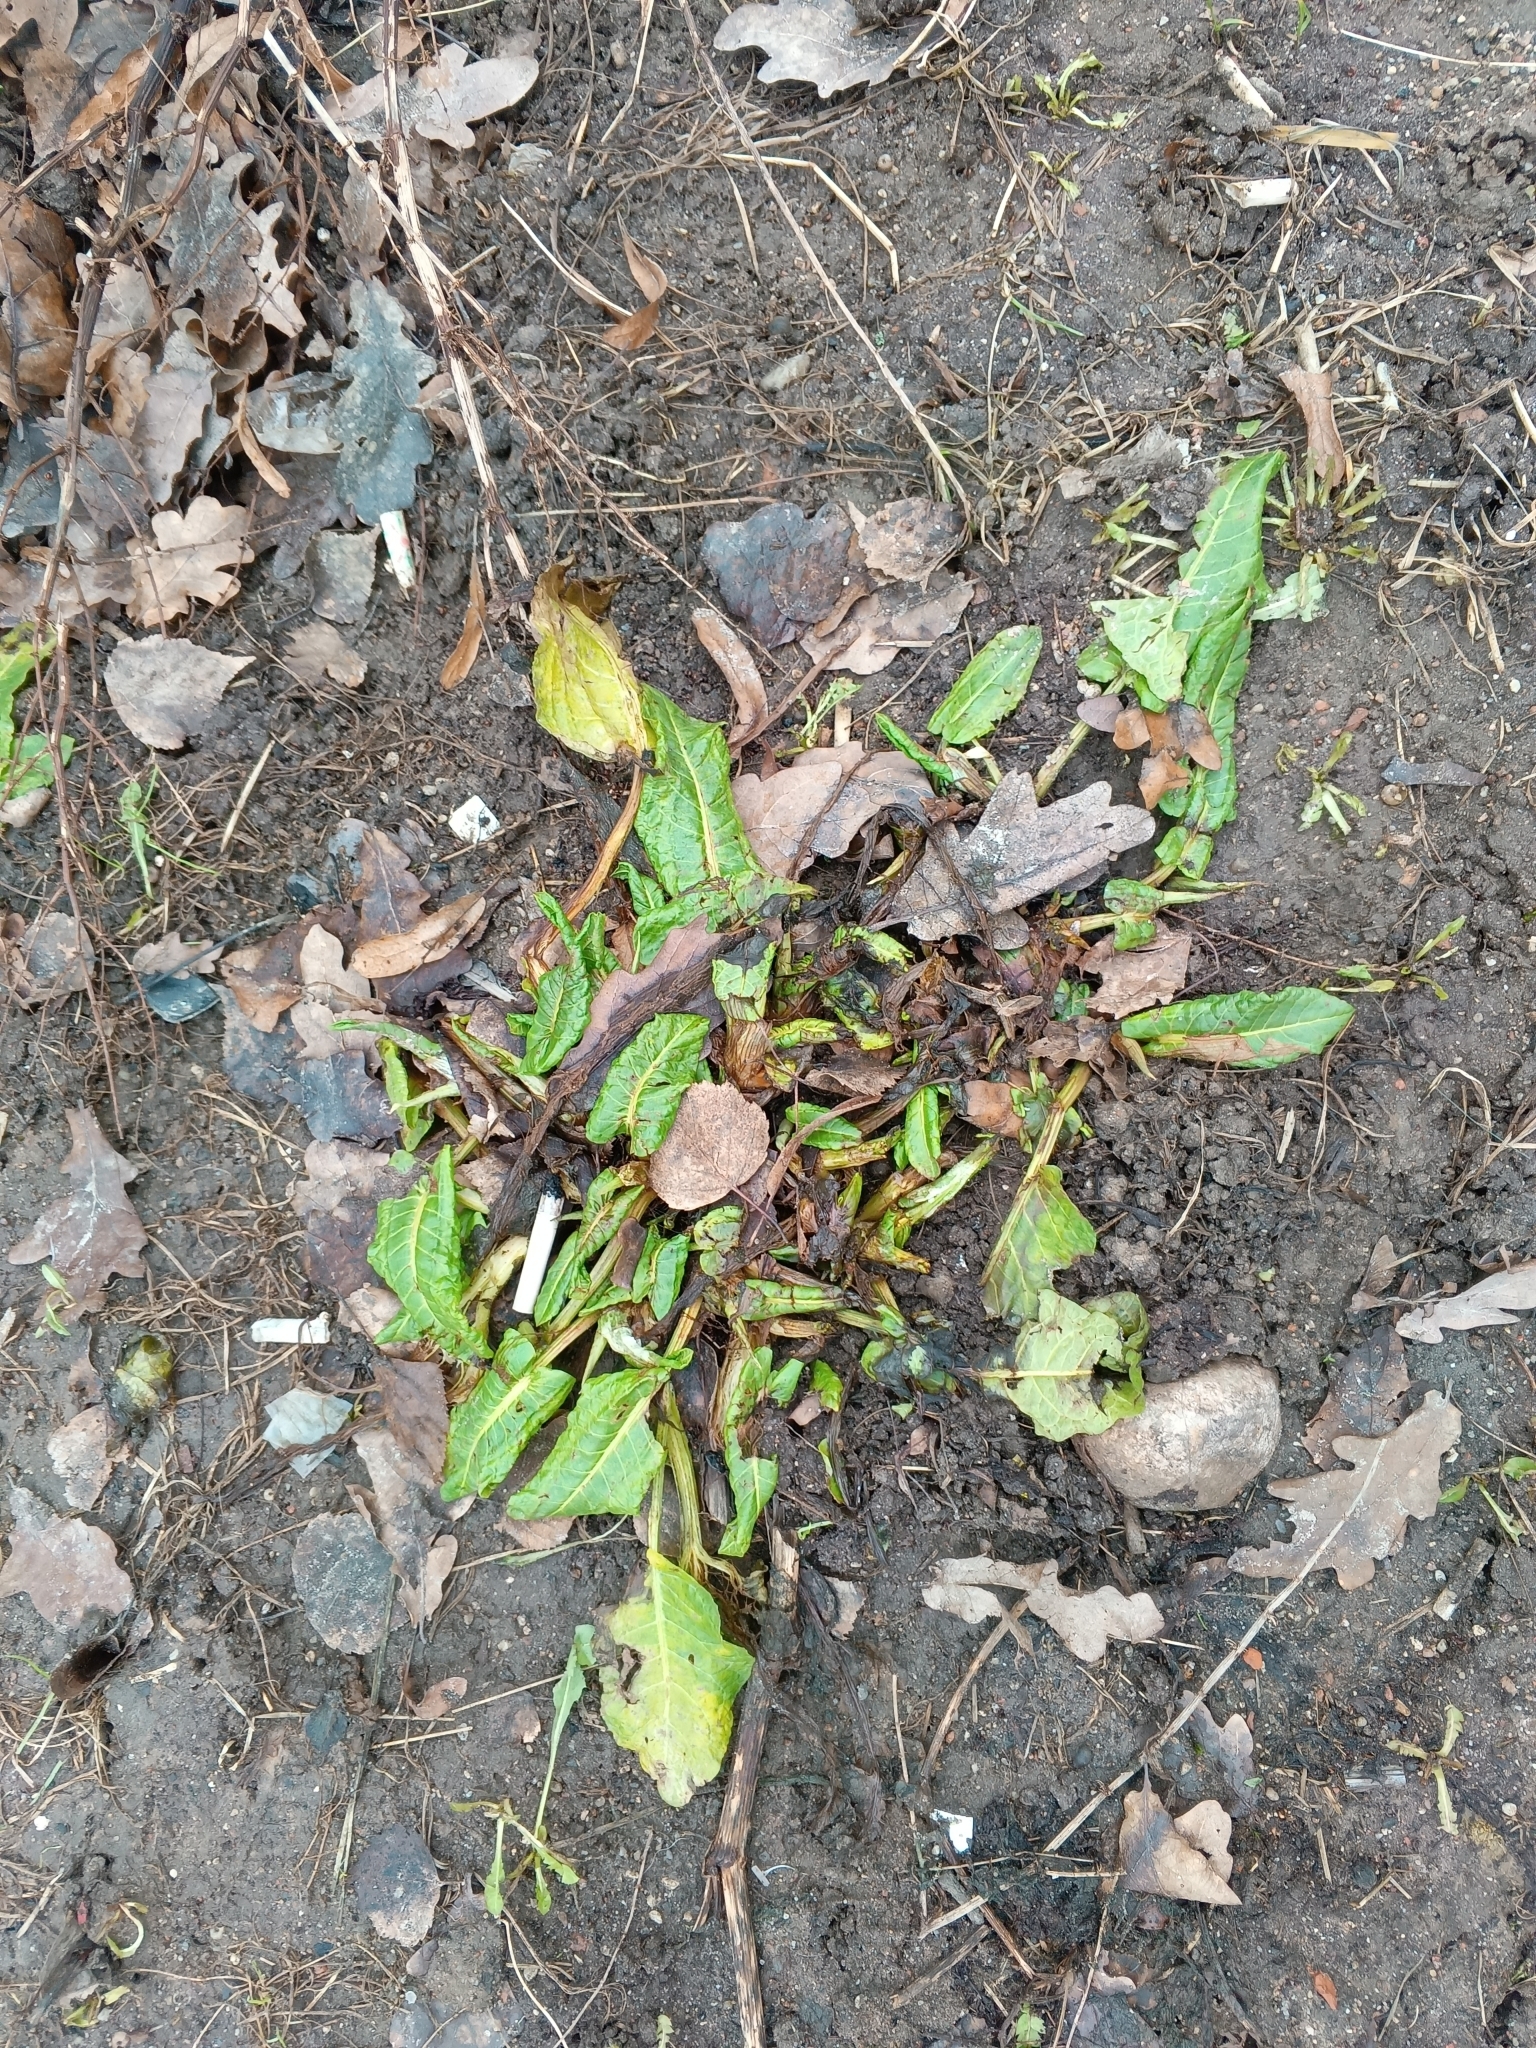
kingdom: Plantae
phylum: Tracheophyta
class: Magnoliopsida
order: Caryophyllales
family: Polygonaceae
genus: Rumex
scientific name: Rumex obtusifolius
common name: Bitter dock
